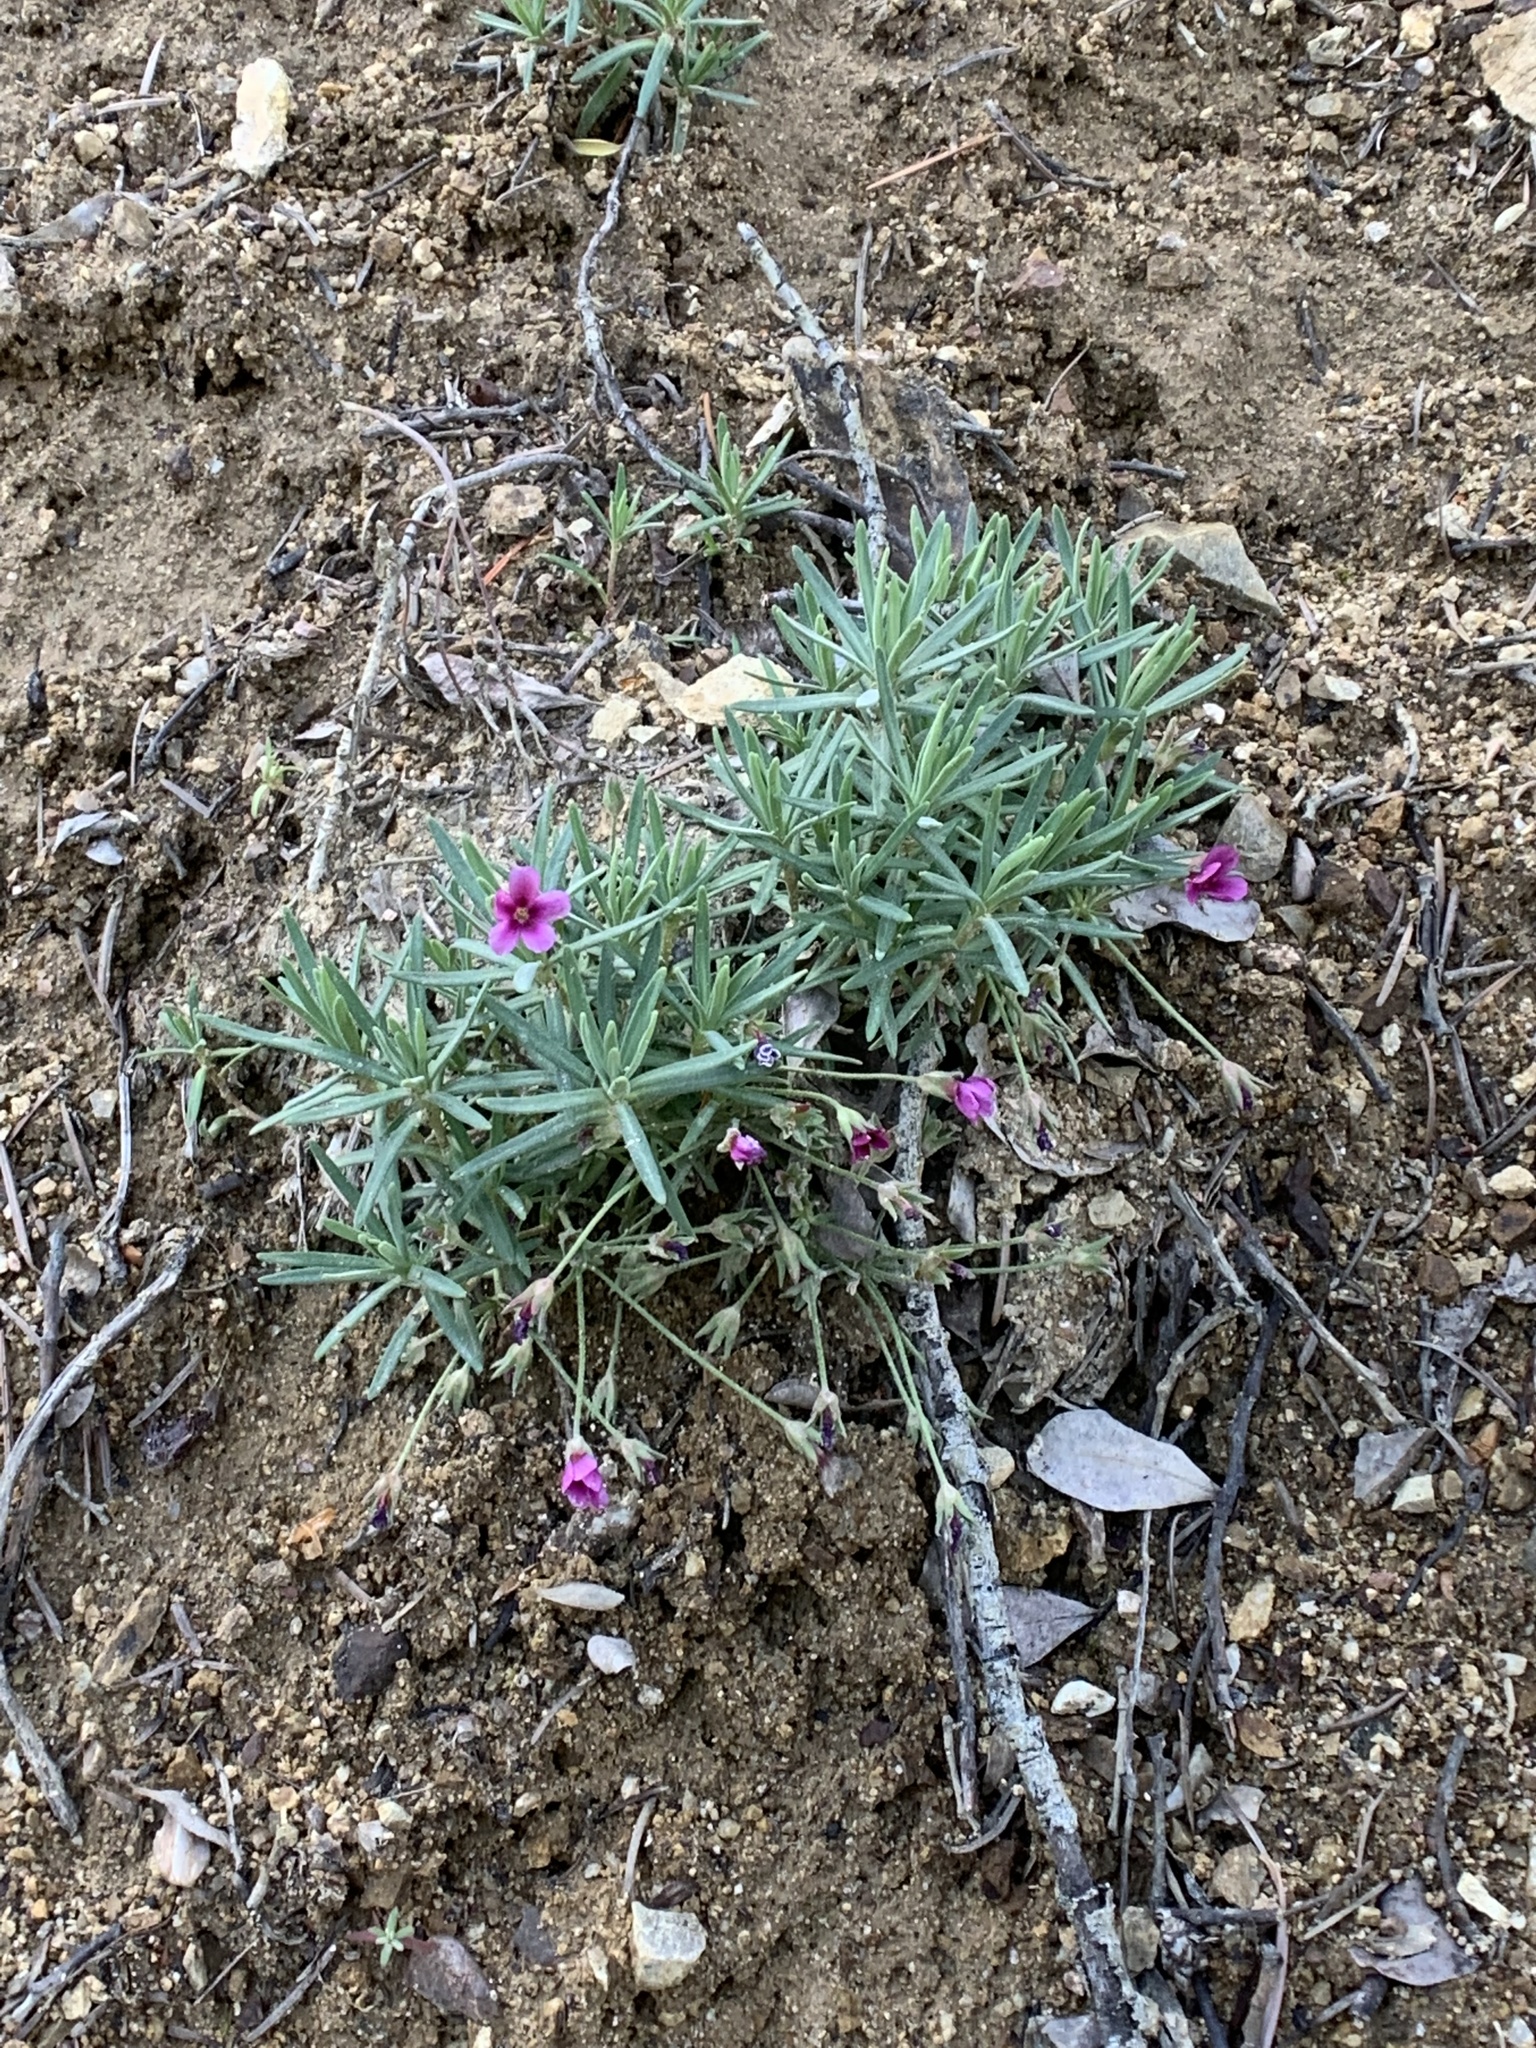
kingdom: Plantae
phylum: Tracheophyta
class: Magnoliopsida
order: Ericales
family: Primulaceae
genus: Androsace
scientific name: Androsace nivalis
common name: Snow dwarf-primrose
